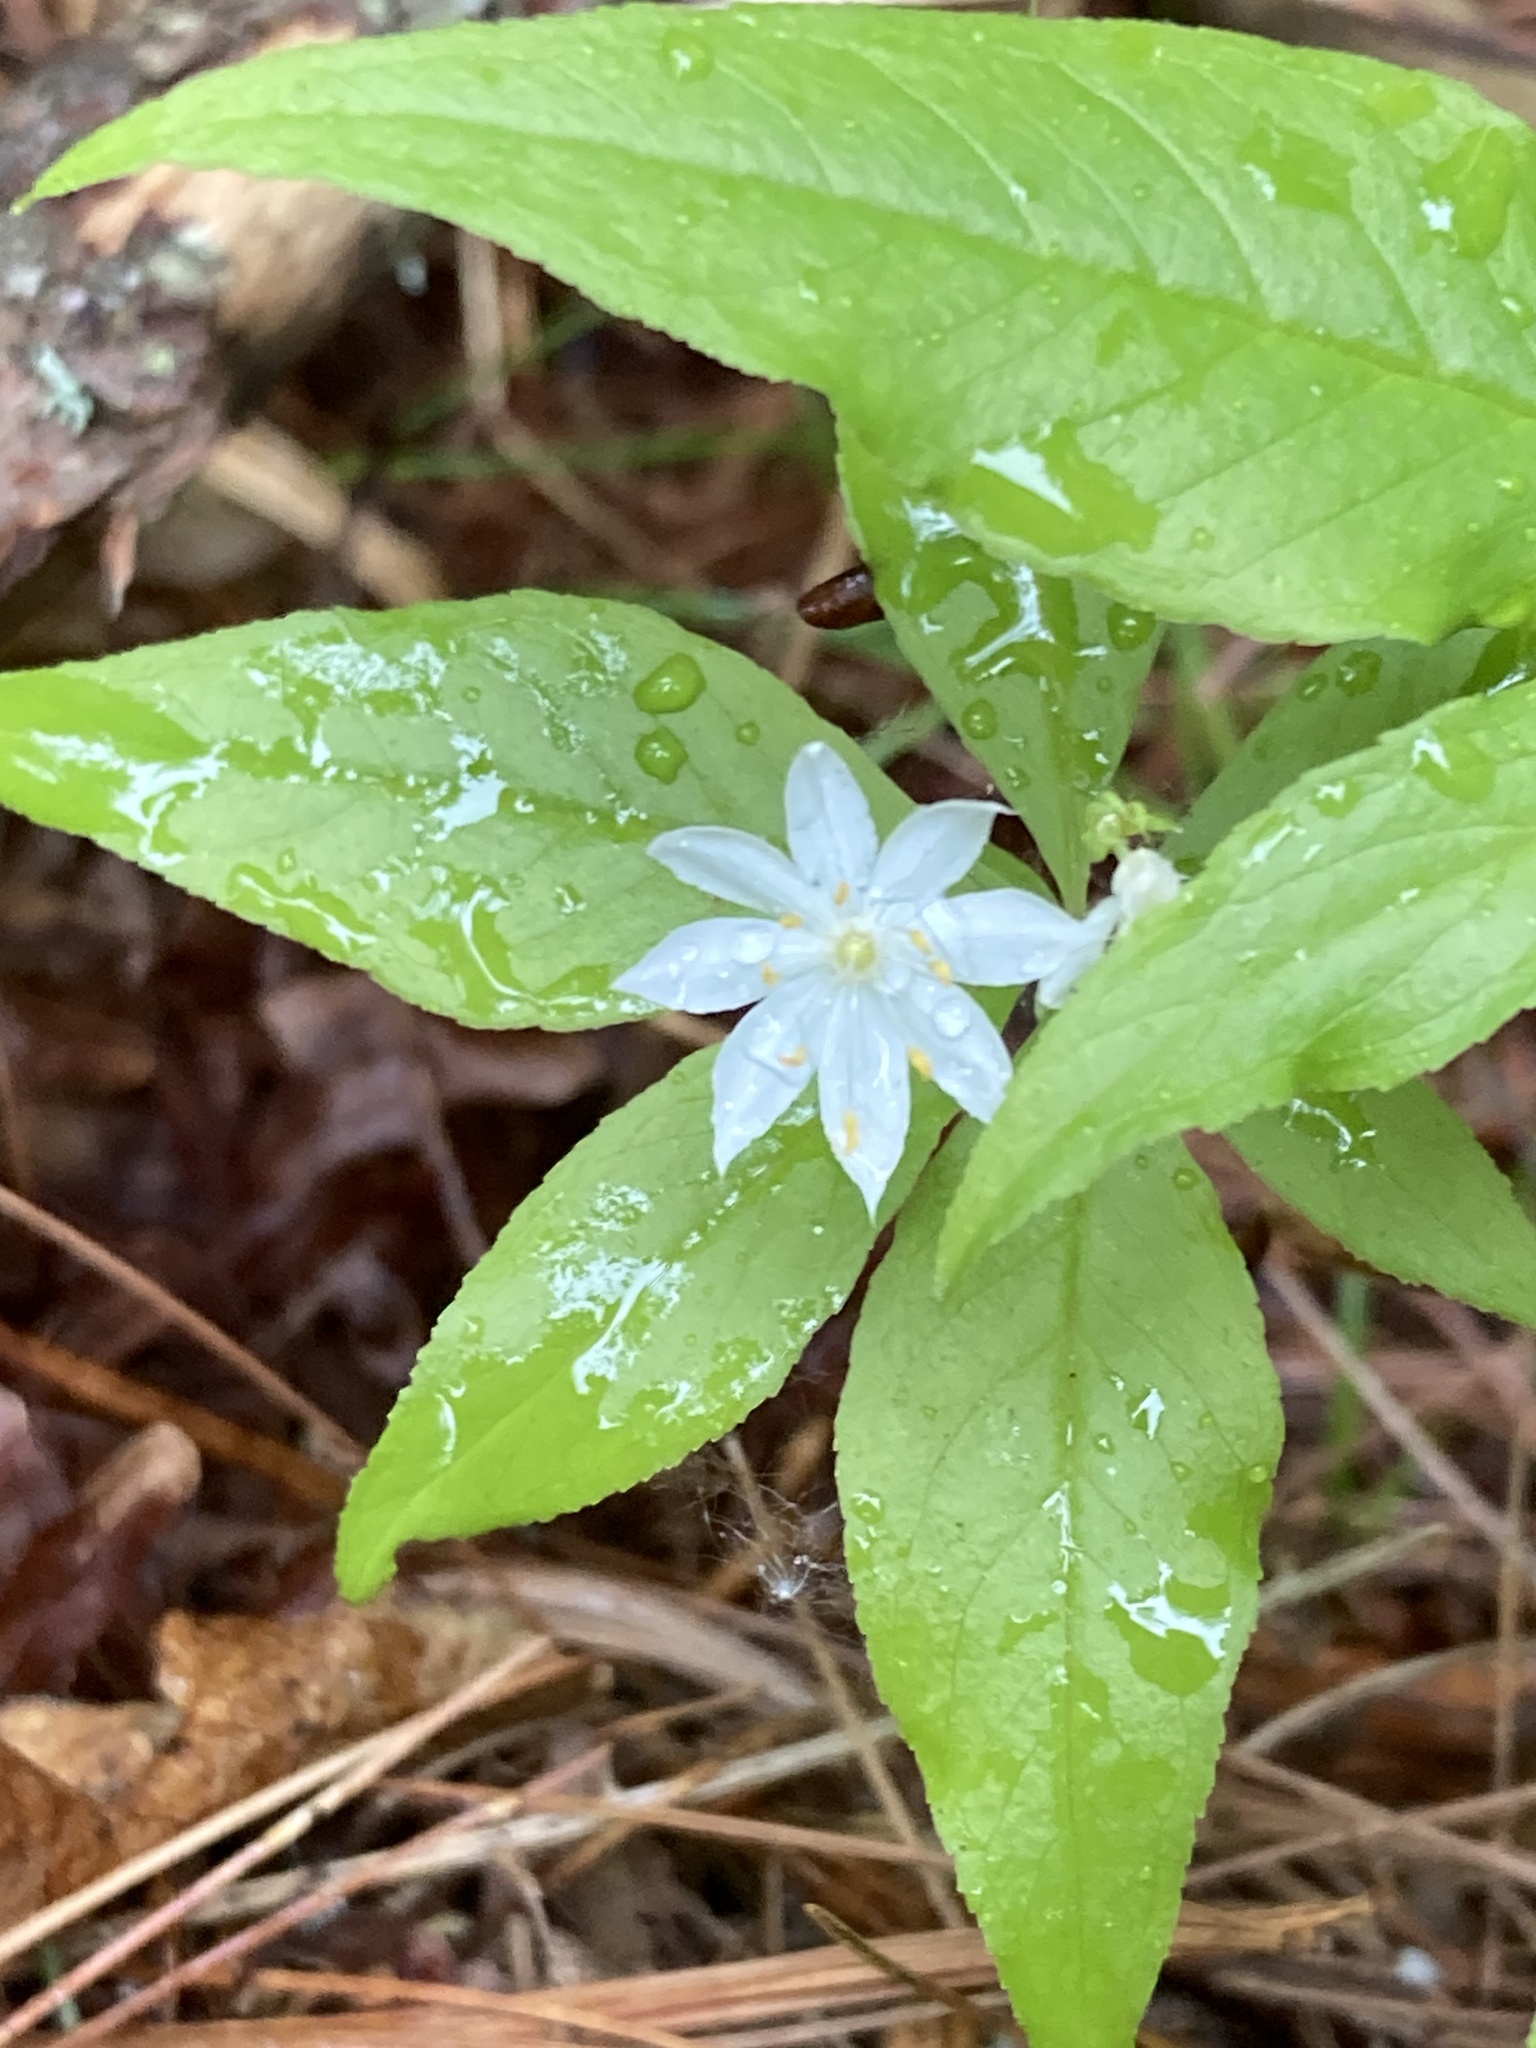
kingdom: Plantae
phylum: Tracheophyta
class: Magnoliopsida
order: Ericales
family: Primulaceae
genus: Lysimachia
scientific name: Lysimachia borealis
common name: American starflower
